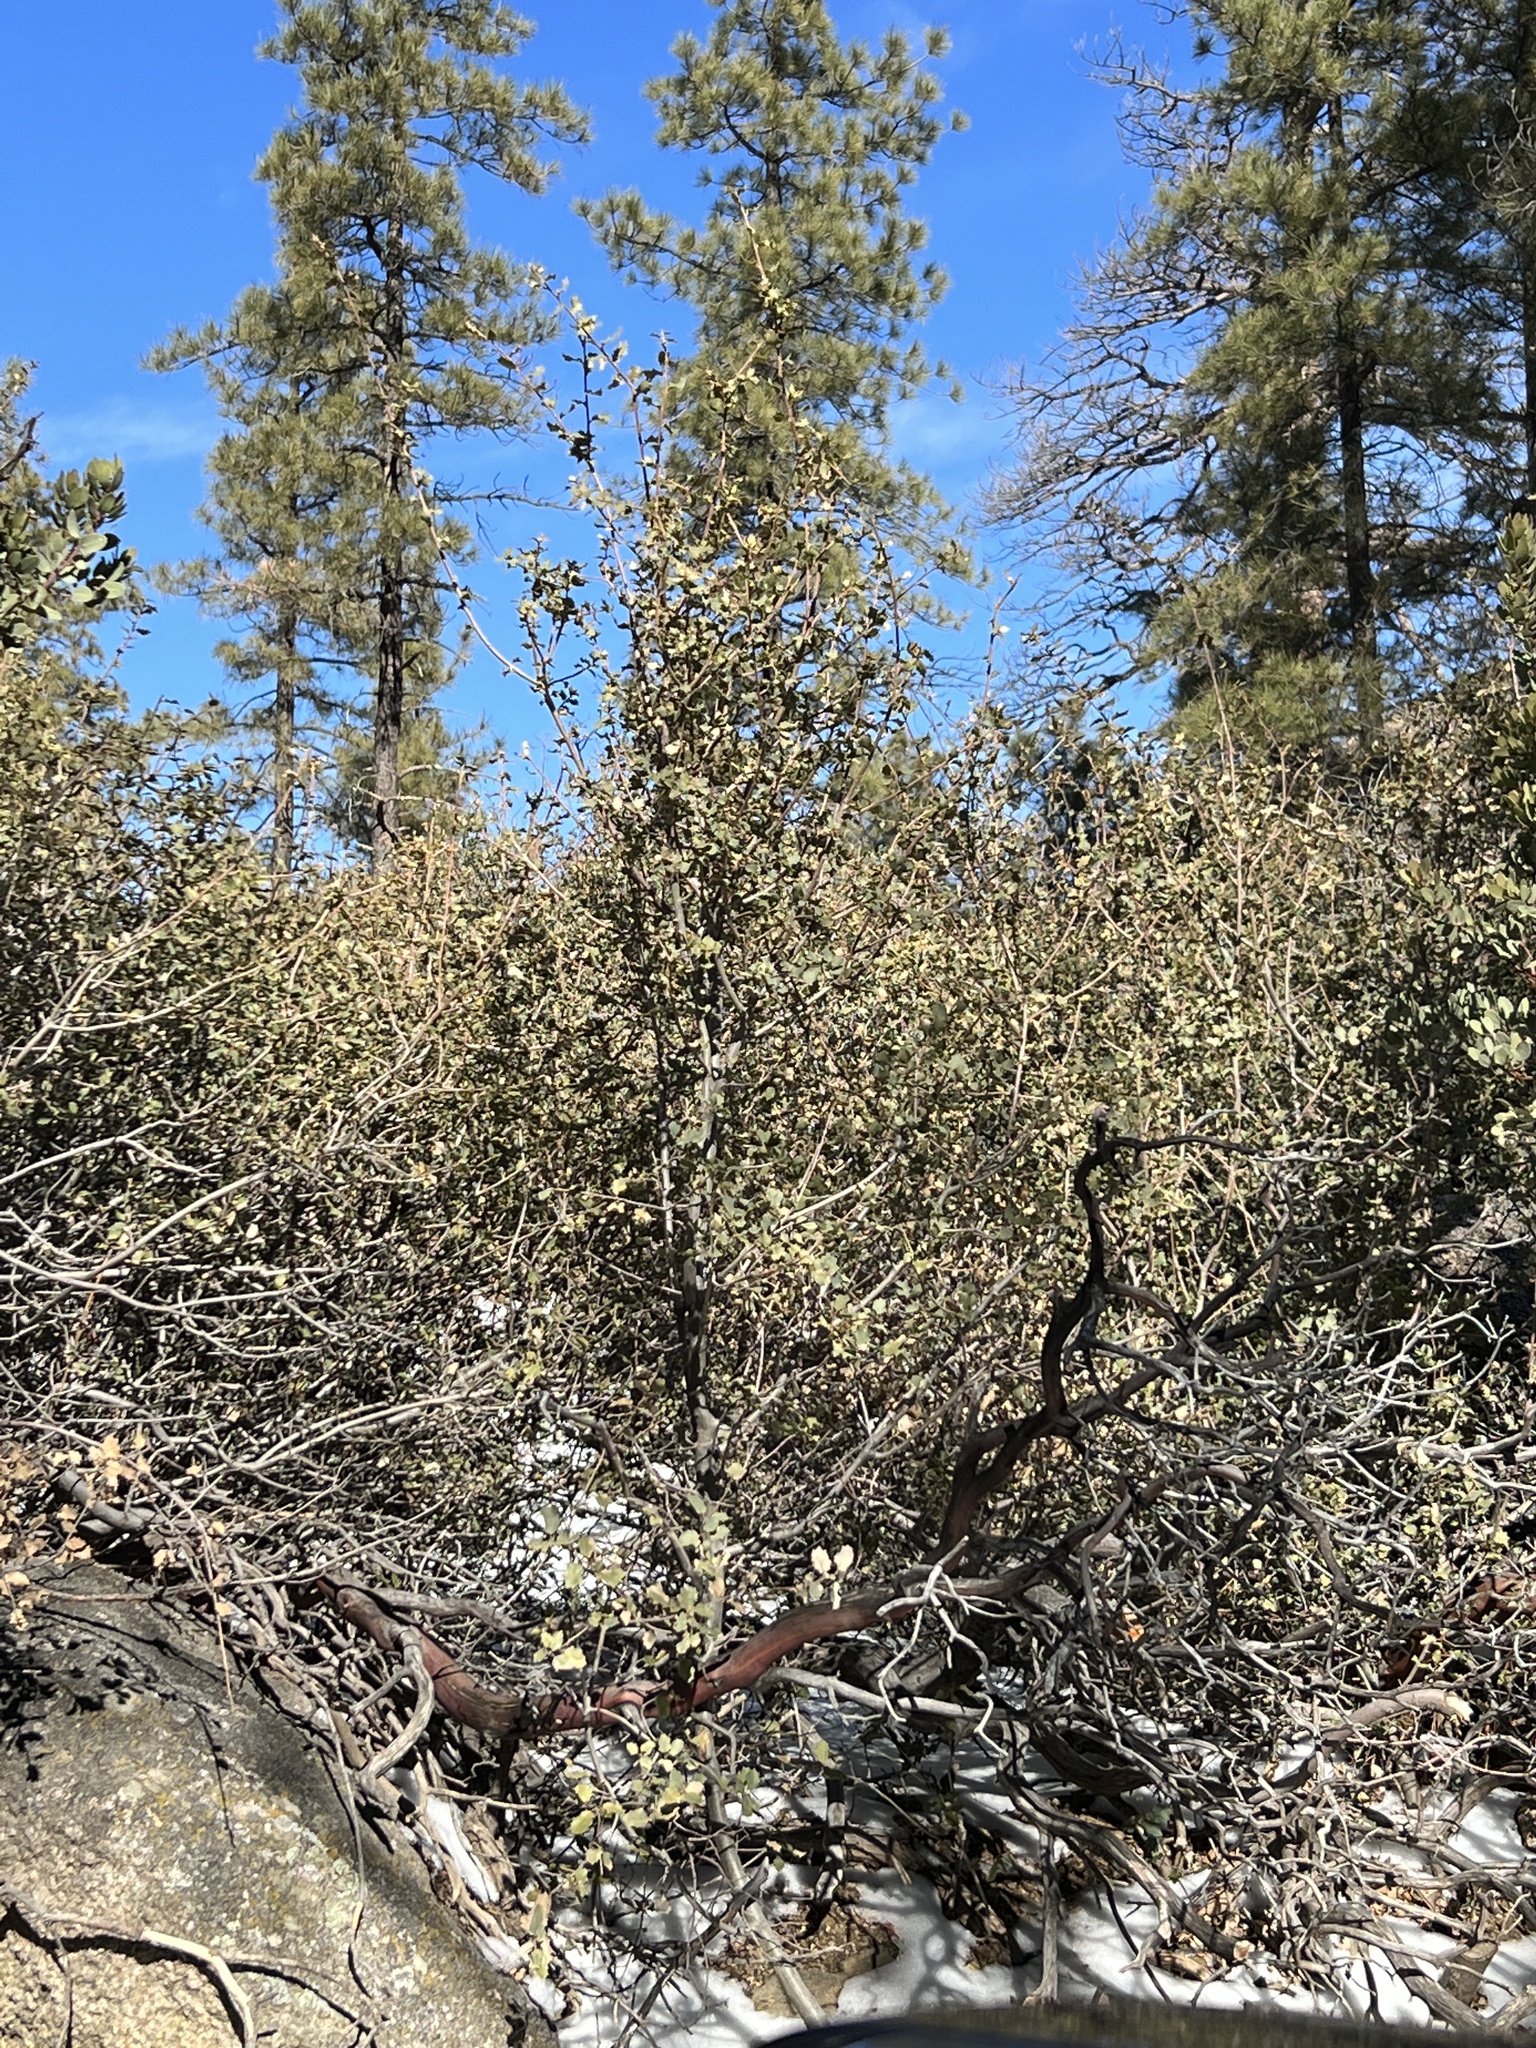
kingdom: Plantae
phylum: Tracheophyta
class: Magnoliopsida
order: Fagales
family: Fagaceae
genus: Quercus
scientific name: Quercus turbinella
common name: Sonoran scrub oak
